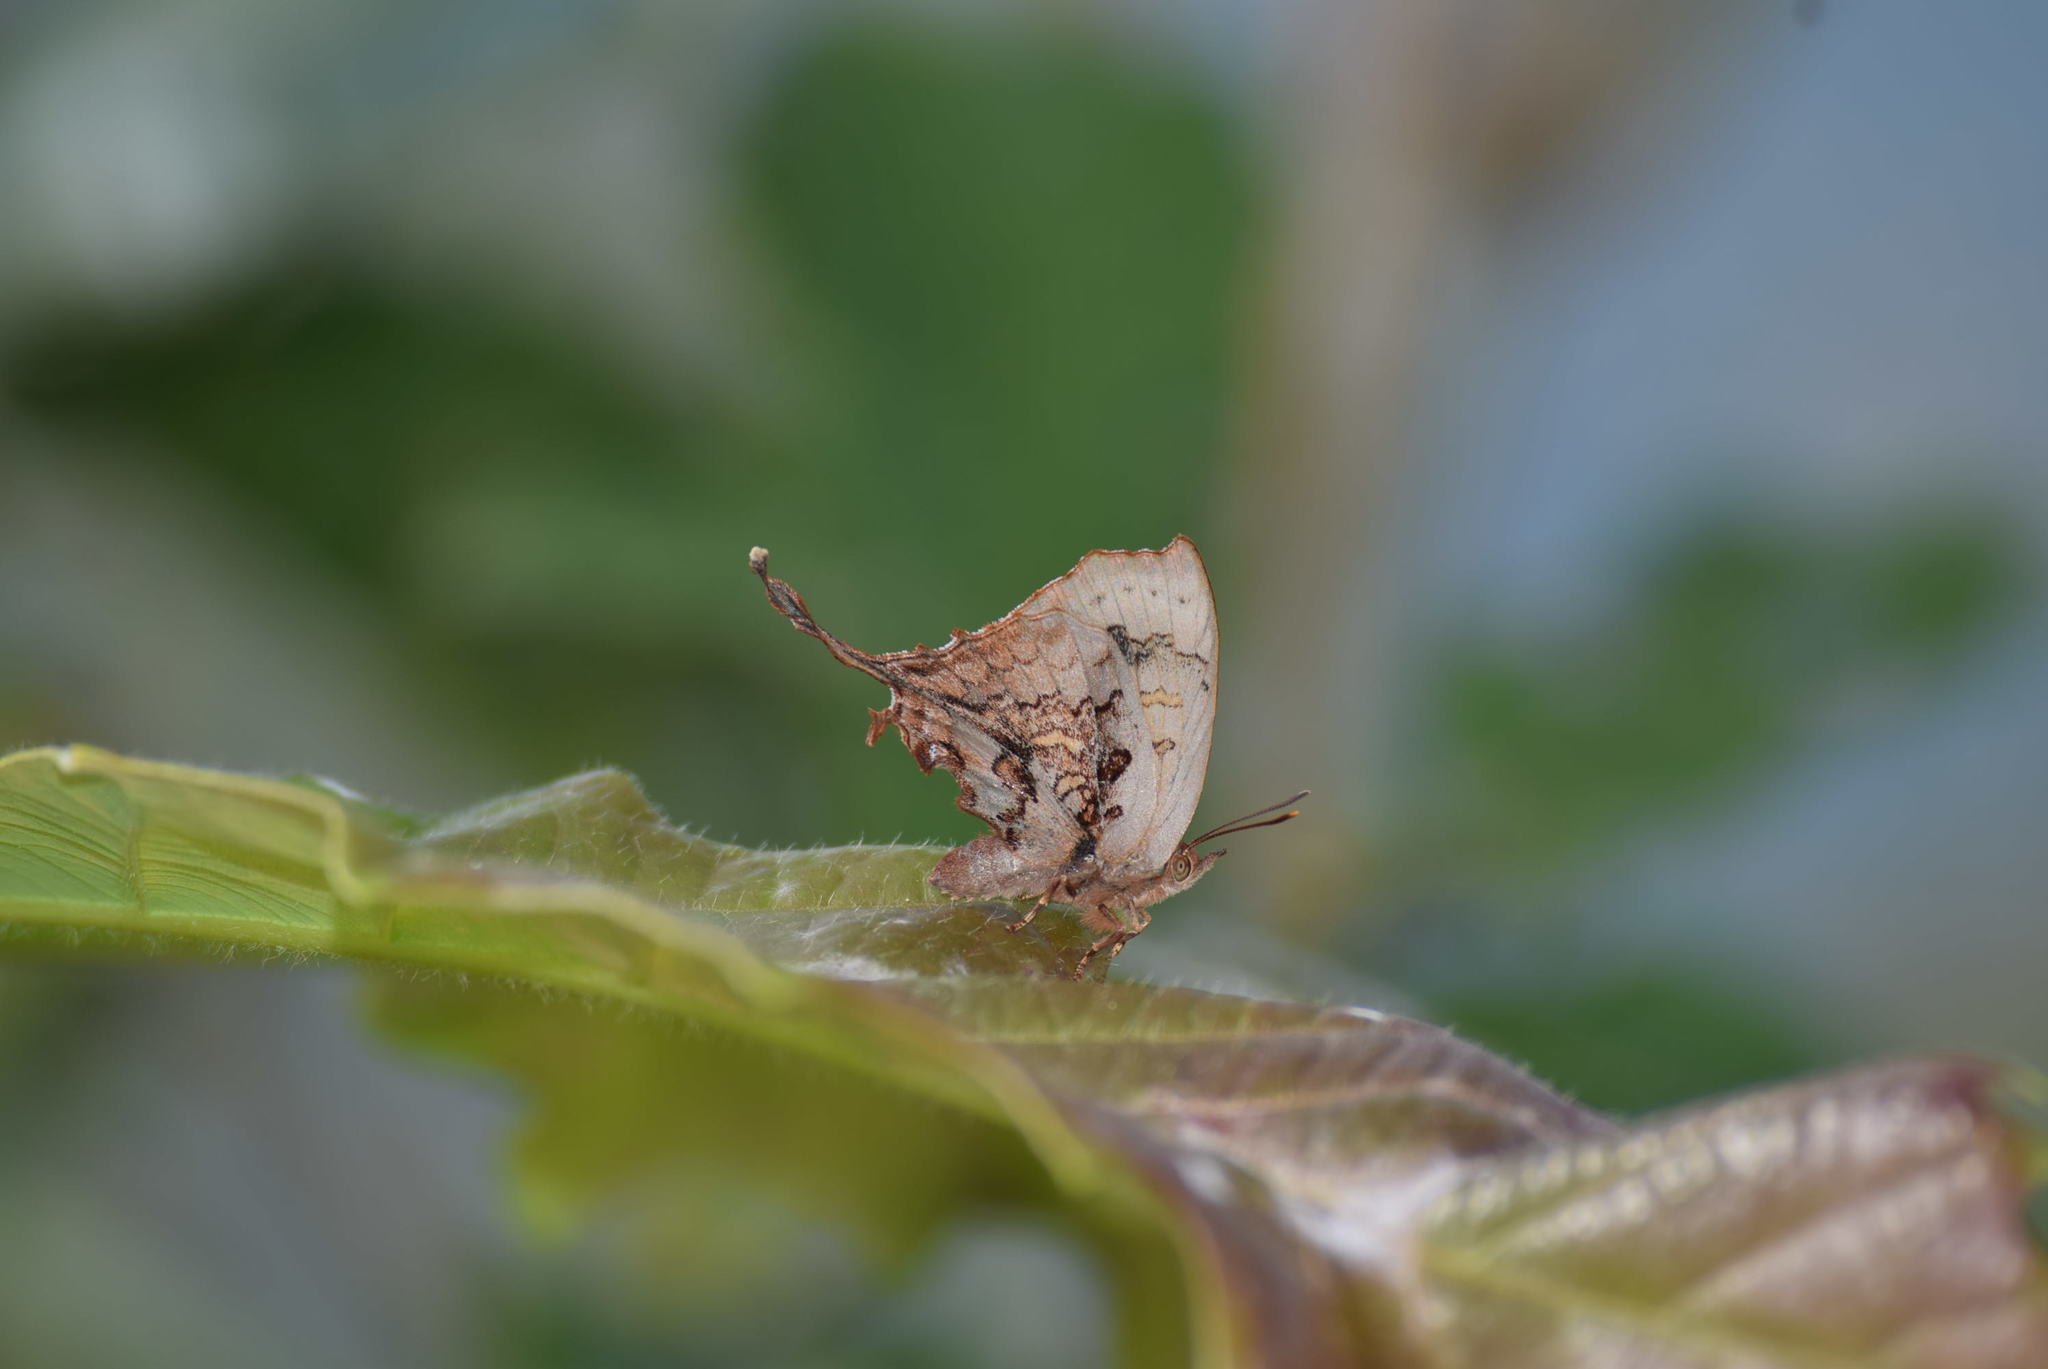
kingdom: Animalia
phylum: Arthropoda
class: Insecta
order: Lepidoptera
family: Lycaenidae
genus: Cheritrella
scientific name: Cheritrella truncipennis
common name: Truncate imperial
